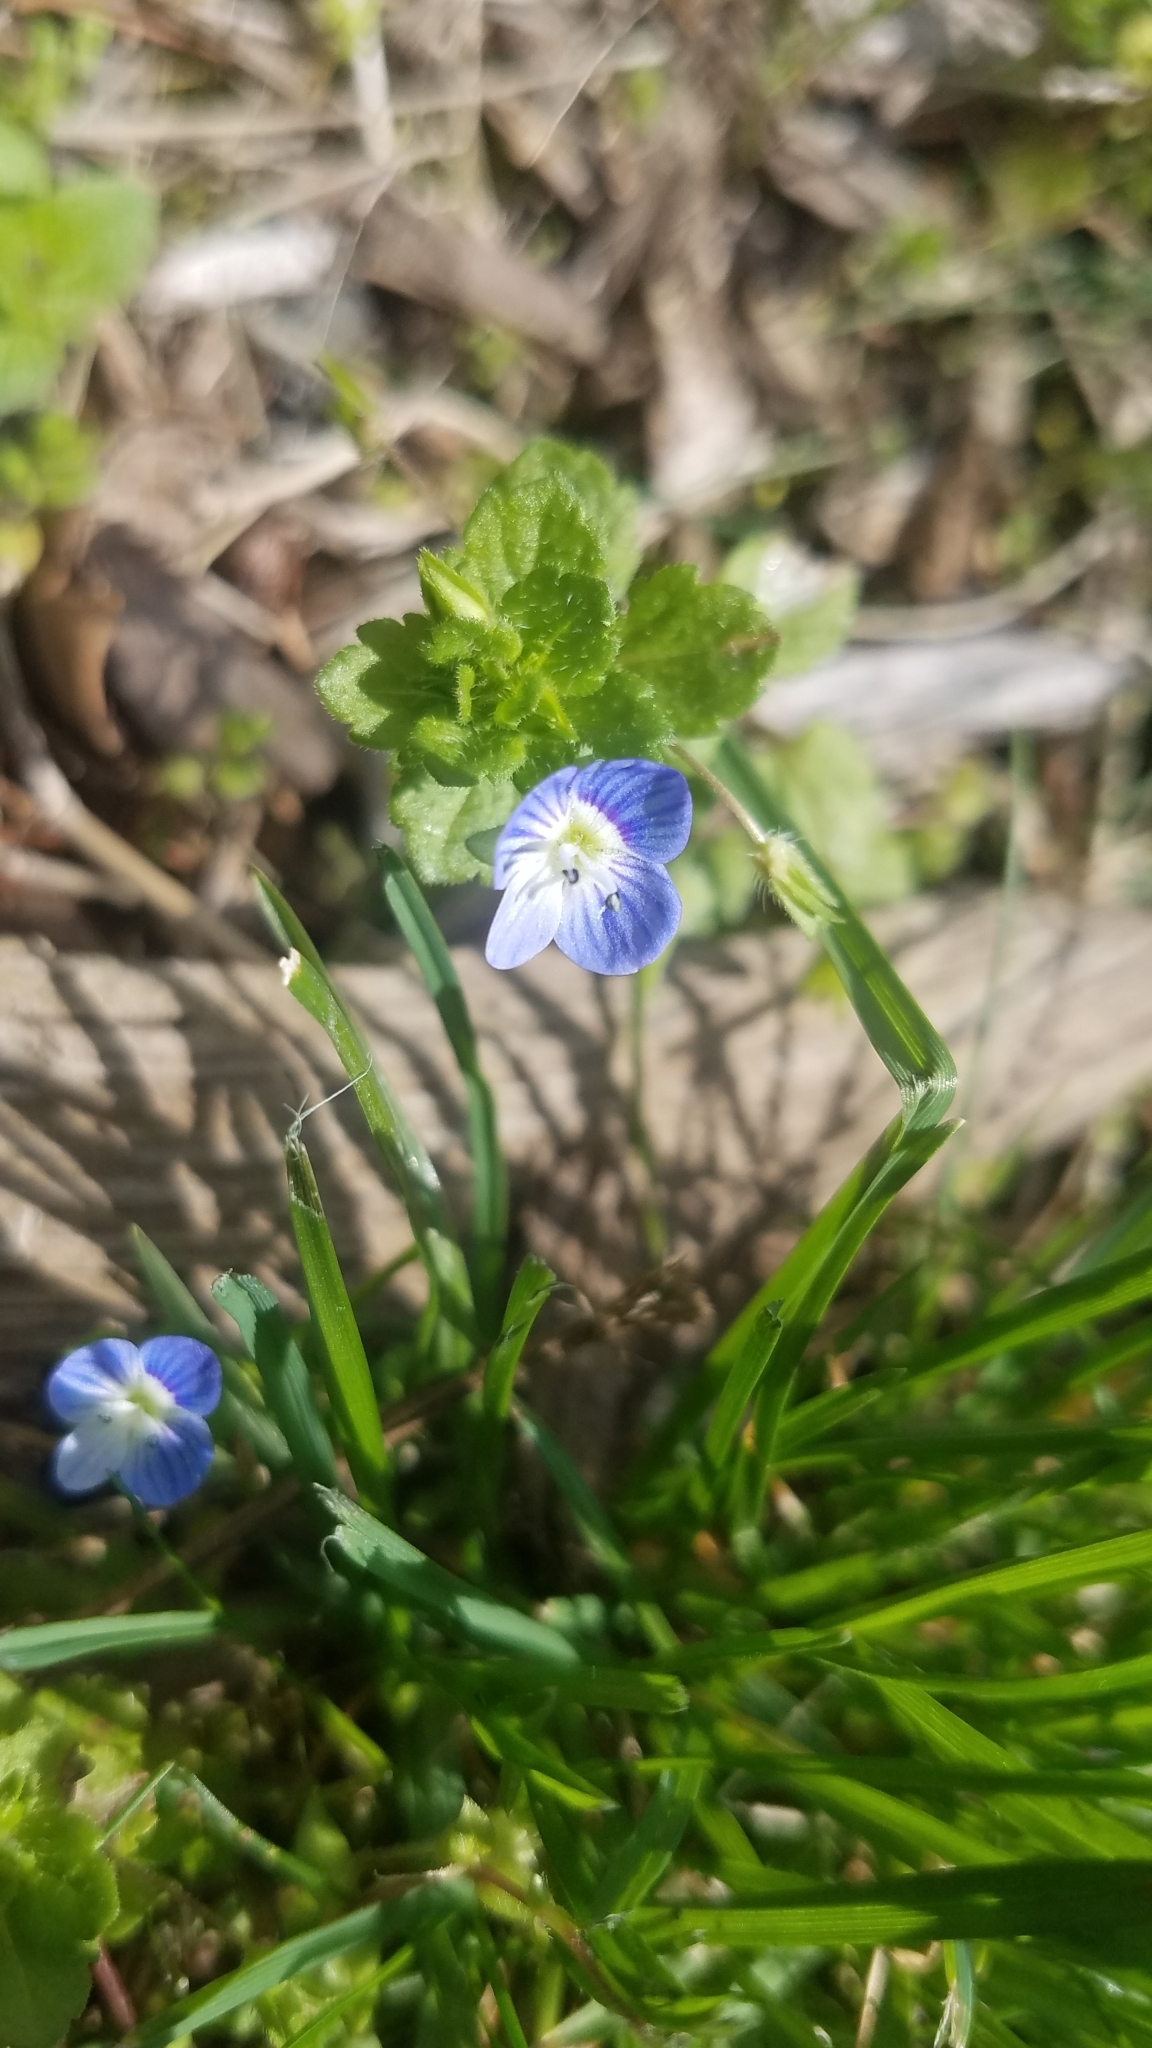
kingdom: Plantae
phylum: Tracheophyta
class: Magnoliopsida
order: Lamiales
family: Plantaginaceae
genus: Veronica
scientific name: Veronica persica
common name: Common field-speedwell
